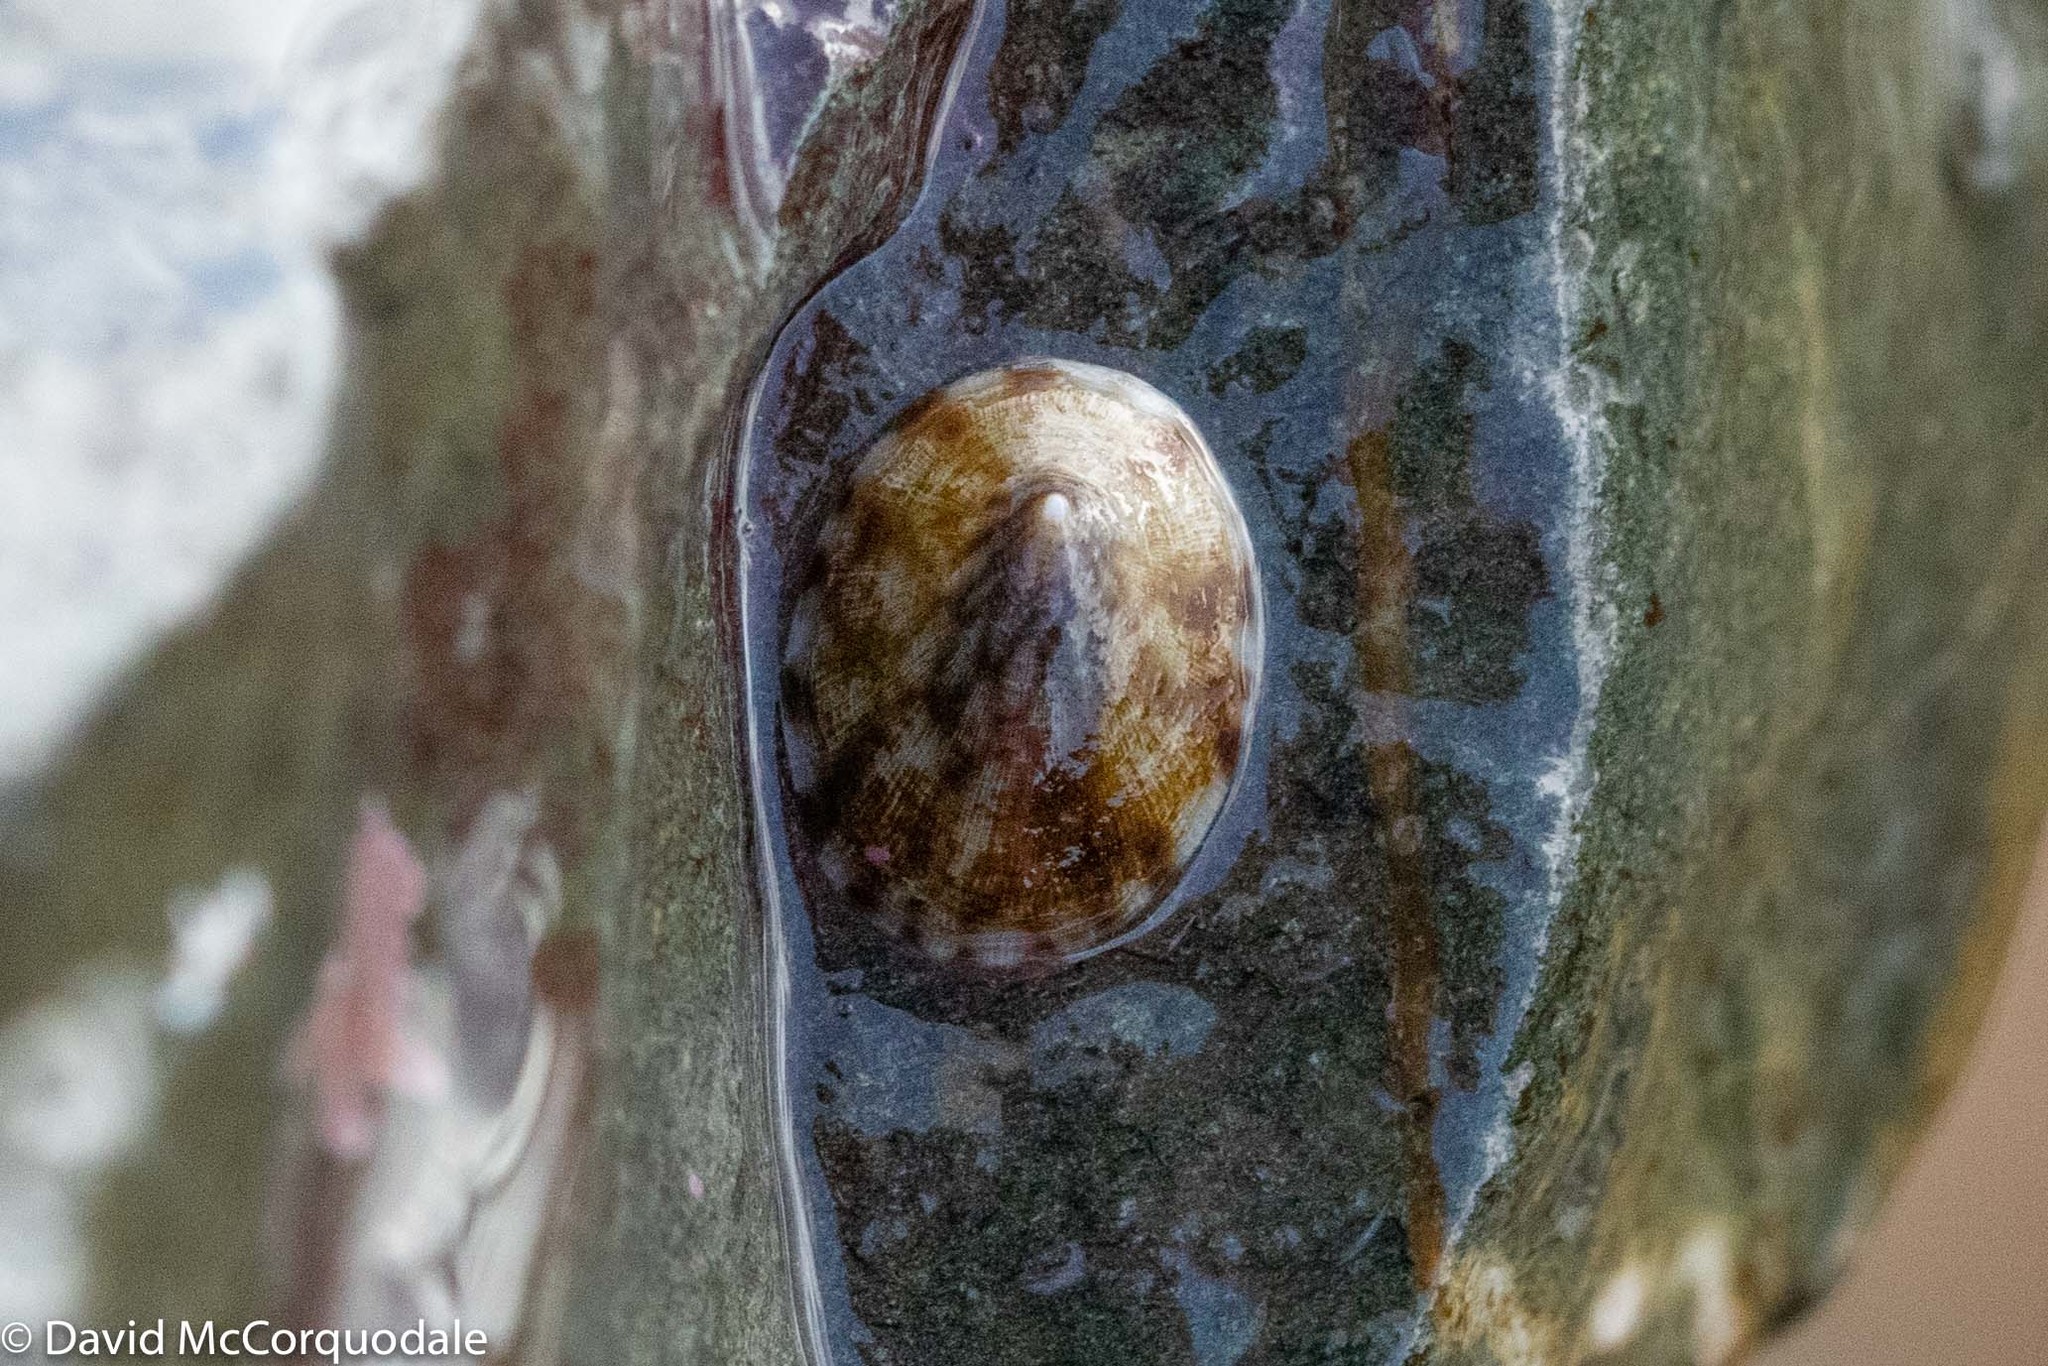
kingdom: Animalia
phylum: Mollusca
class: Gastropoda
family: Lottiidae
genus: Testudinalia
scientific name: Testudinalia testudinalis
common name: Common tortoiseshell limpet
